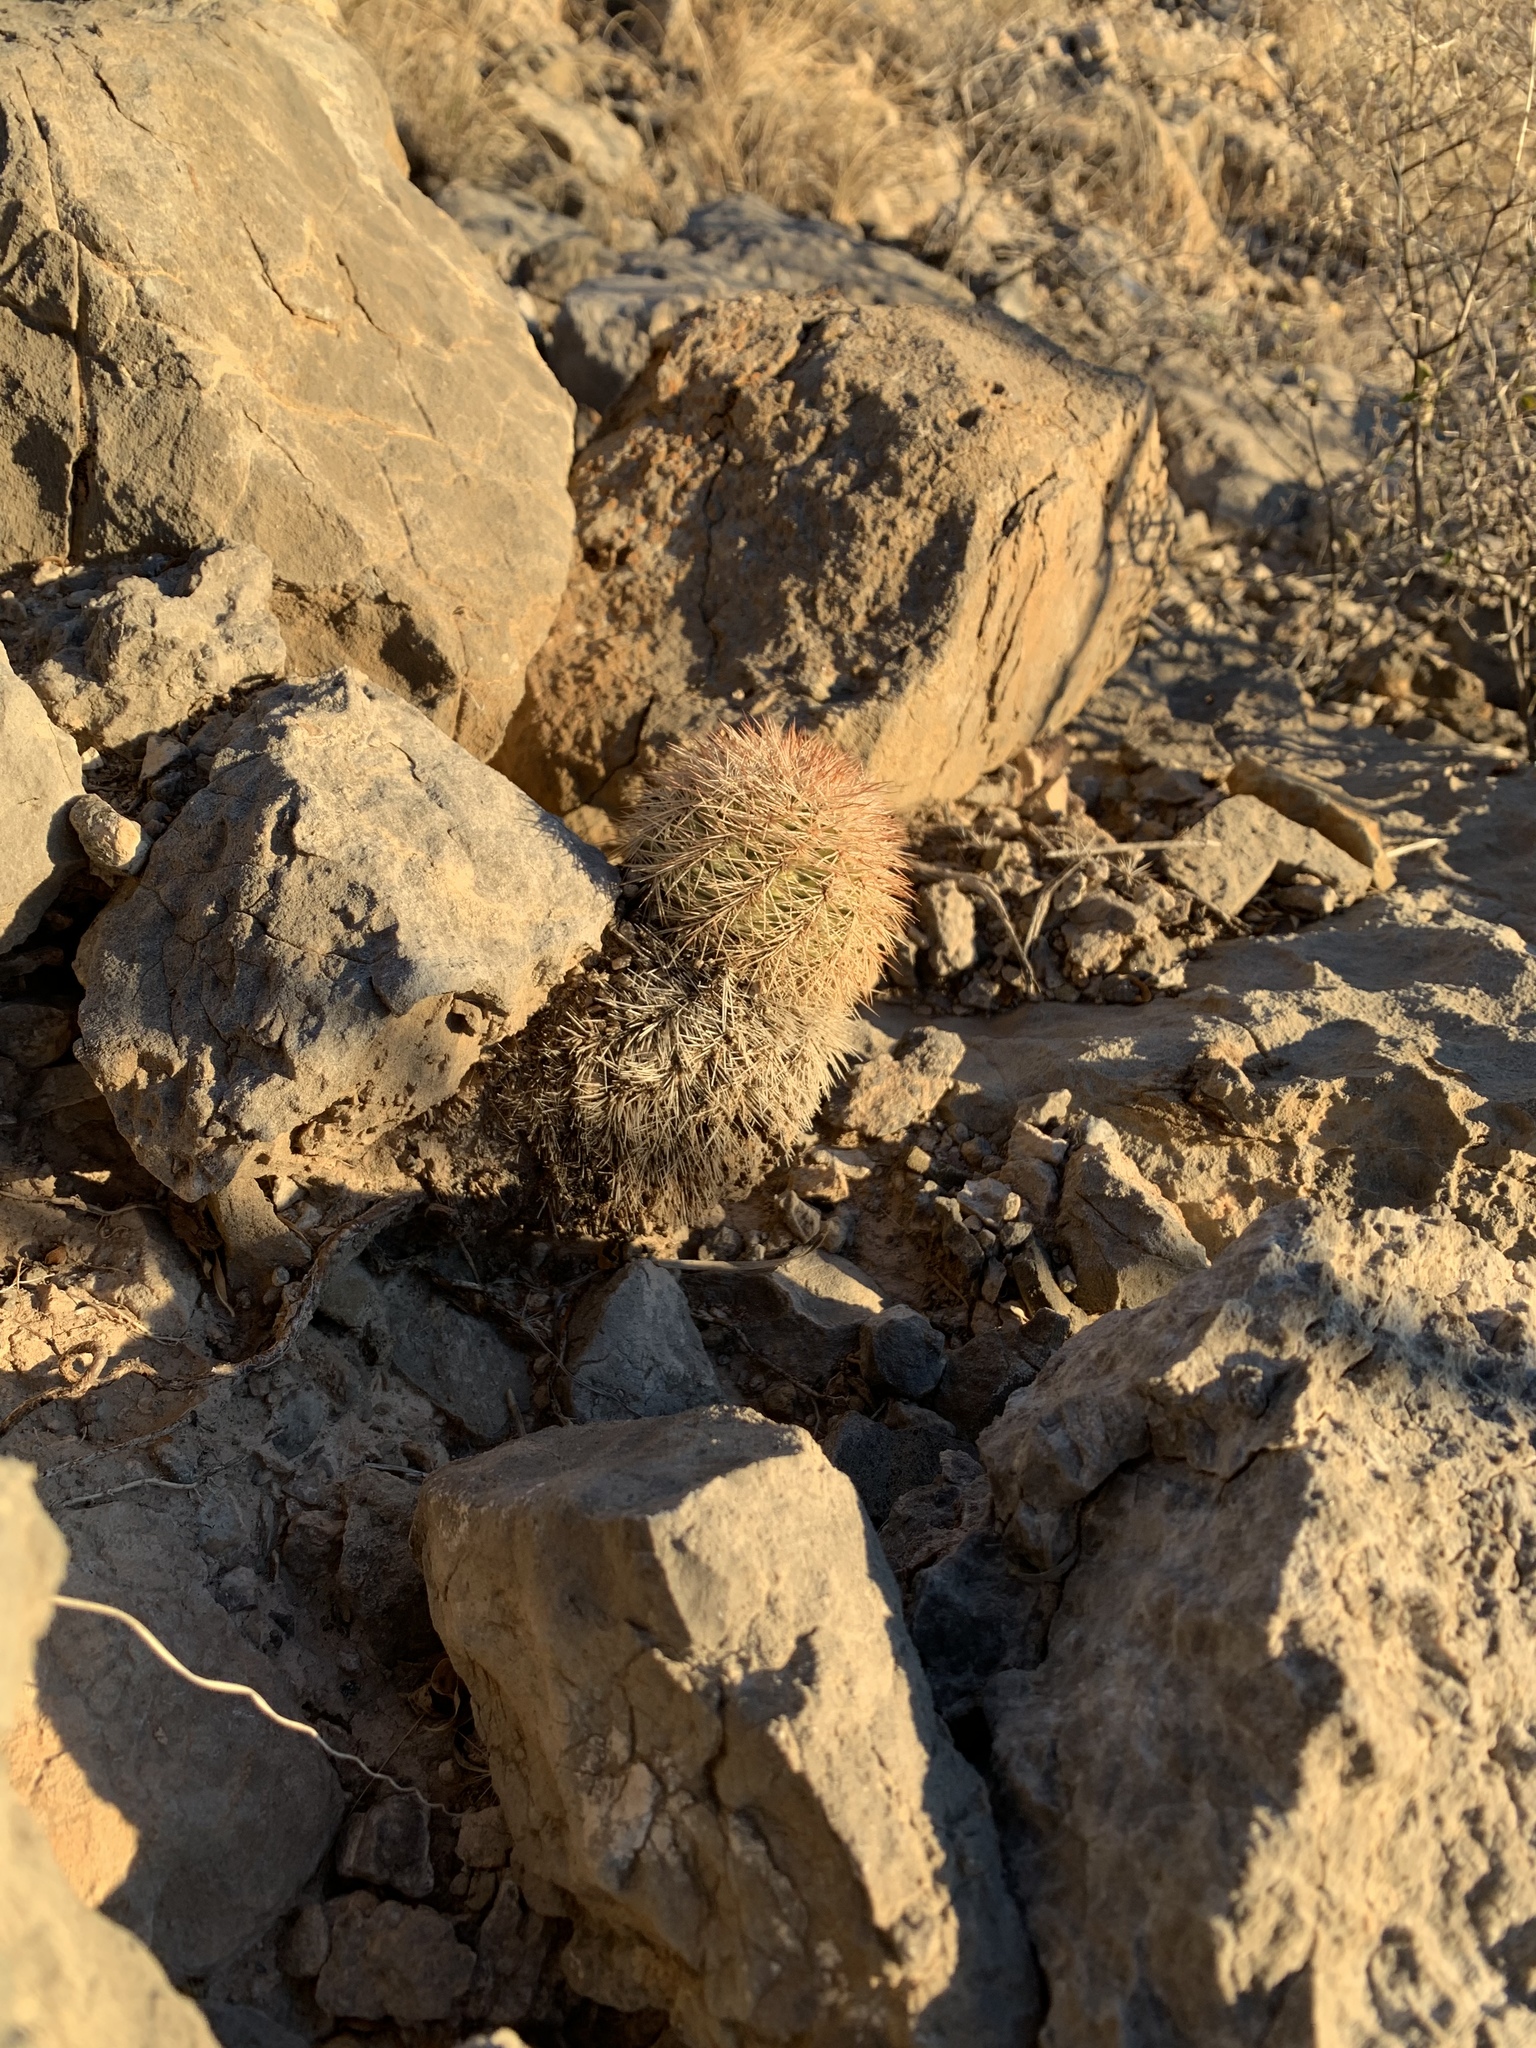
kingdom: Plantae
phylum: Tracheophyta
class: Magnoliopsida
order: Caryophyllales
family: Cactaceae
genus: Echinocereus
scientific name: Echinocereus dasyacanthus
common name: Spiny hedgehog cactus
